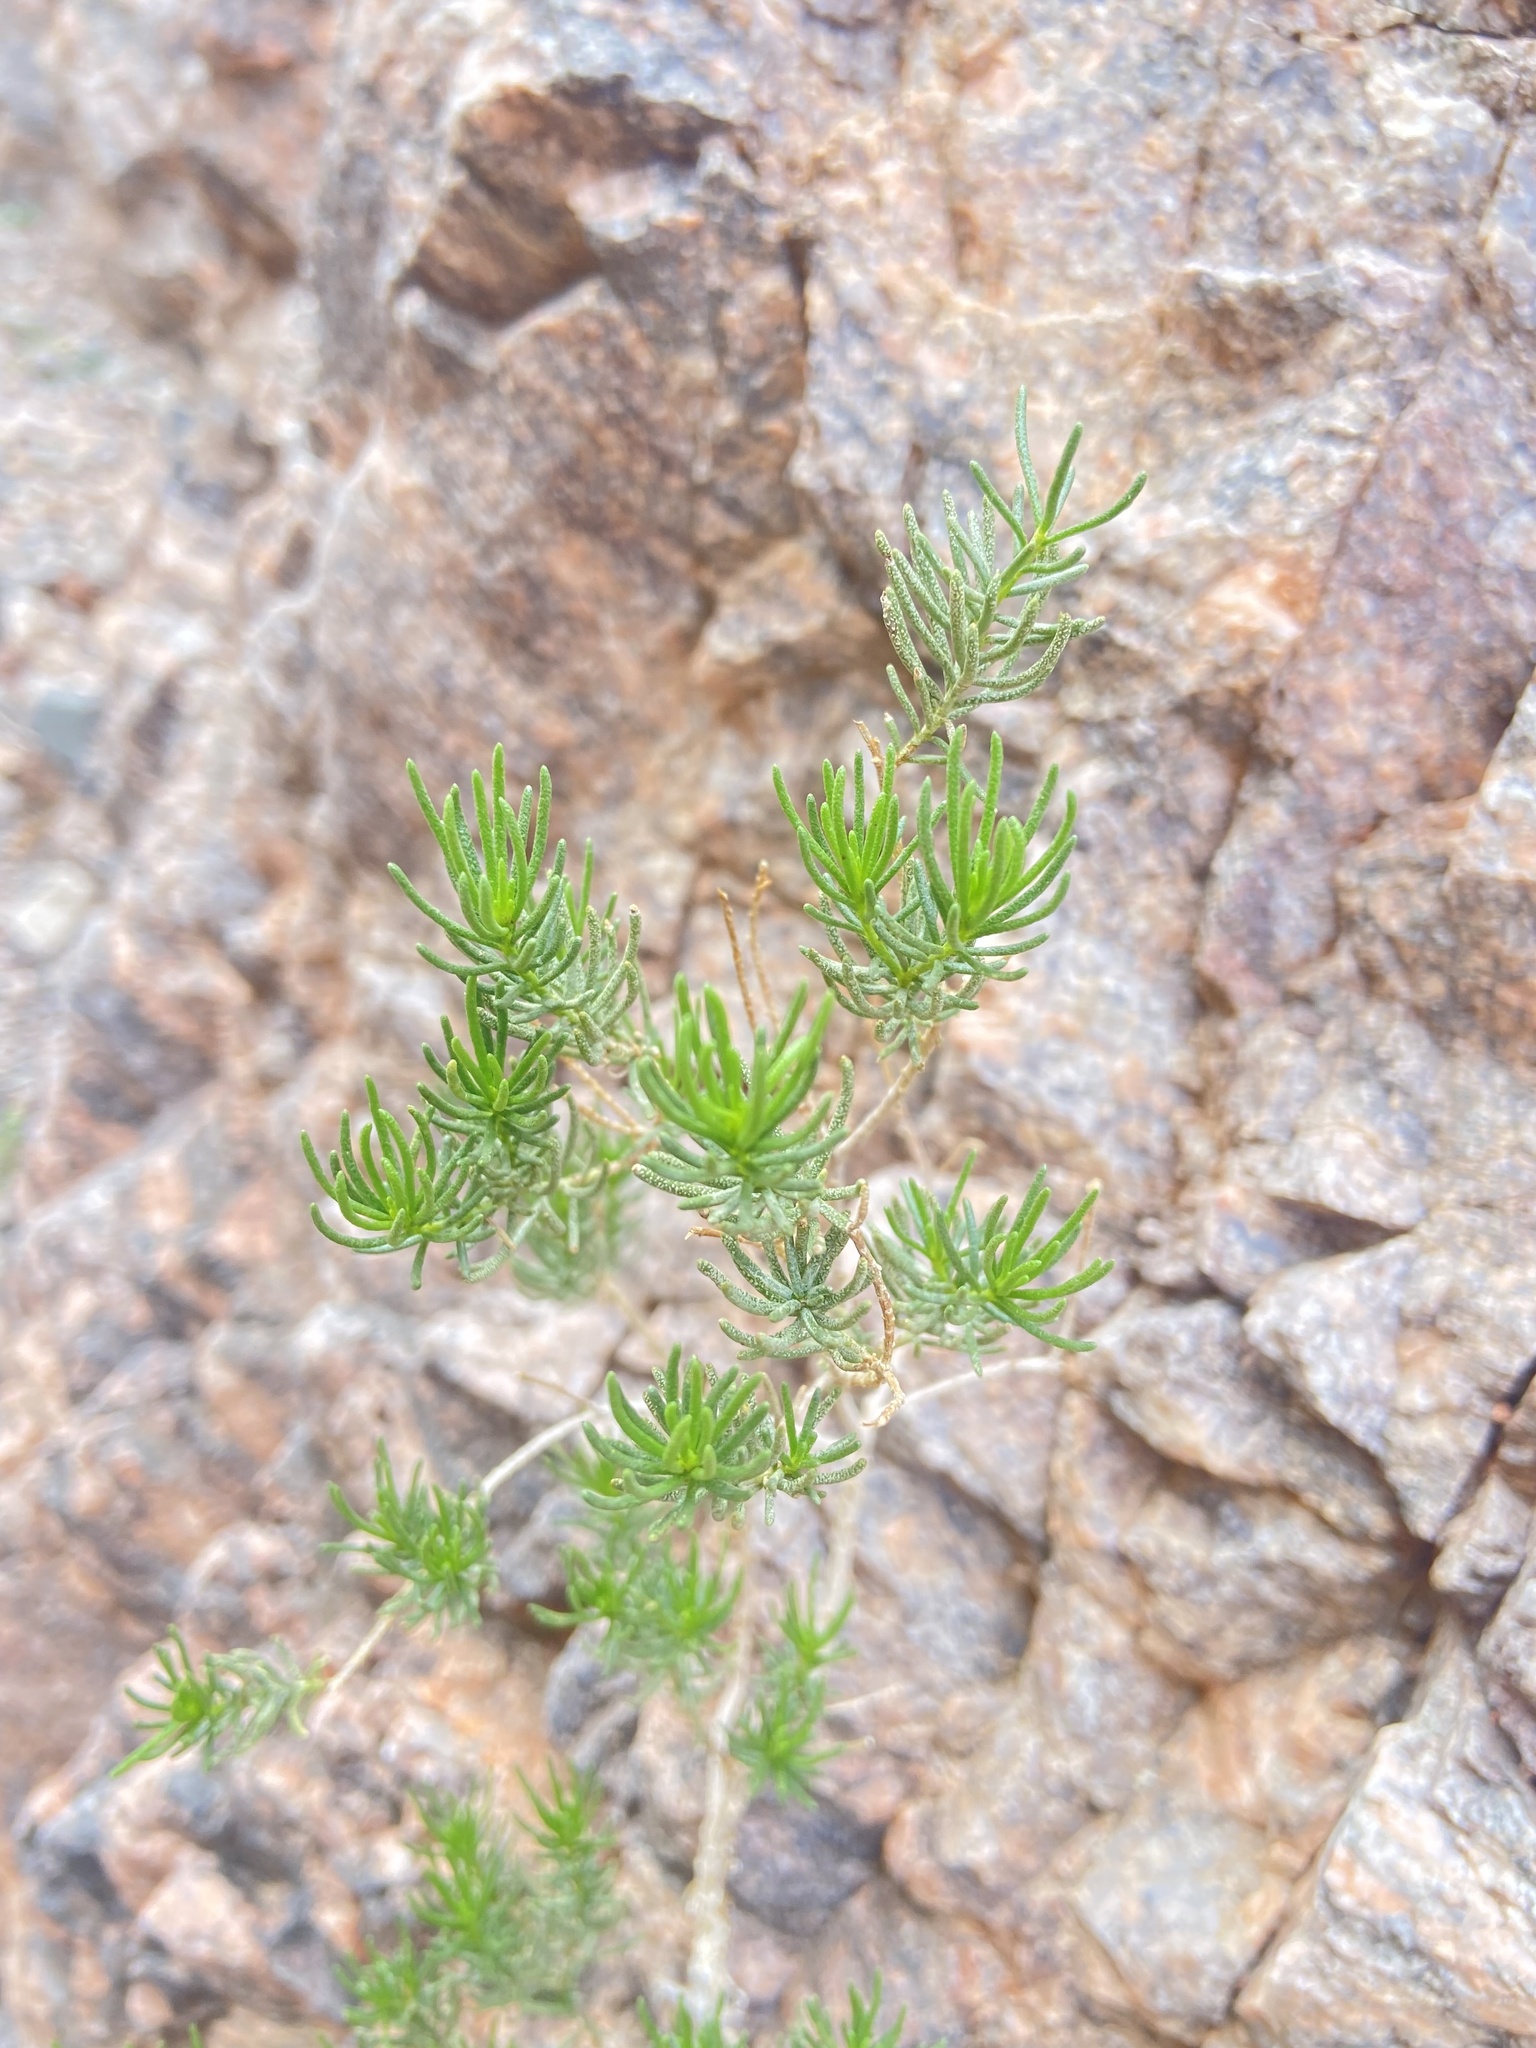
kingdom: Plantae
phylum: Tracheophyta
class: Magnoliopsida
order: Asterales
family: Asteraceae
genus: Peucephyllum
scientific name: Peucephyllum schottii
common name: Pygmy-cedar
